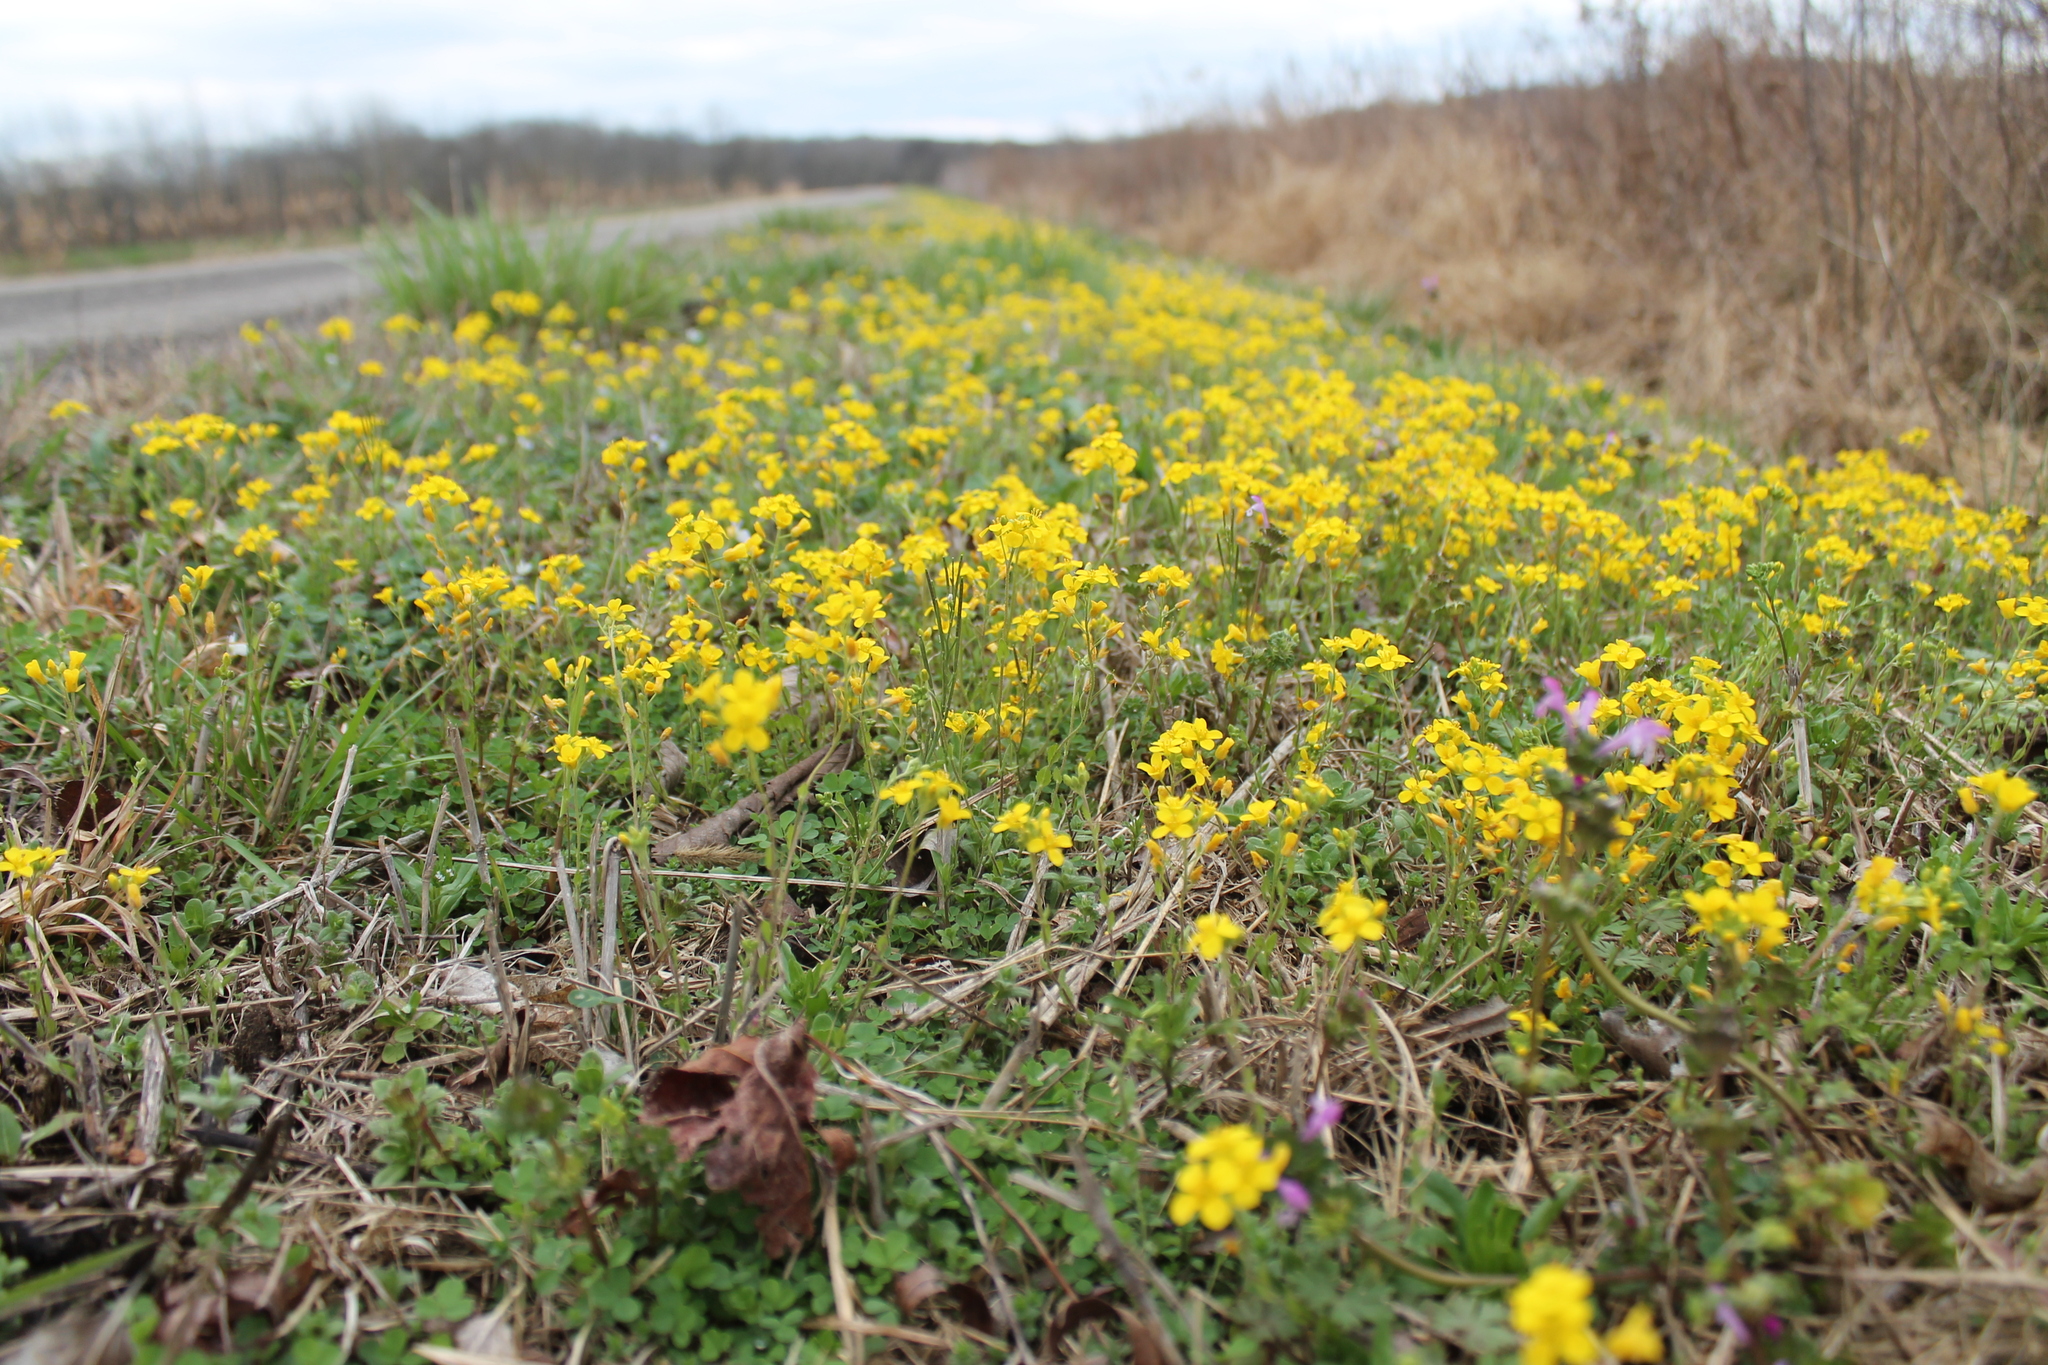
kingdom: Plantae
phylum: Tracheophyta
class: Magnoliopsida
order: Brassicales
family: Brassicaceae
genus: Paysonia
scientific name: Paysonia lescurii
